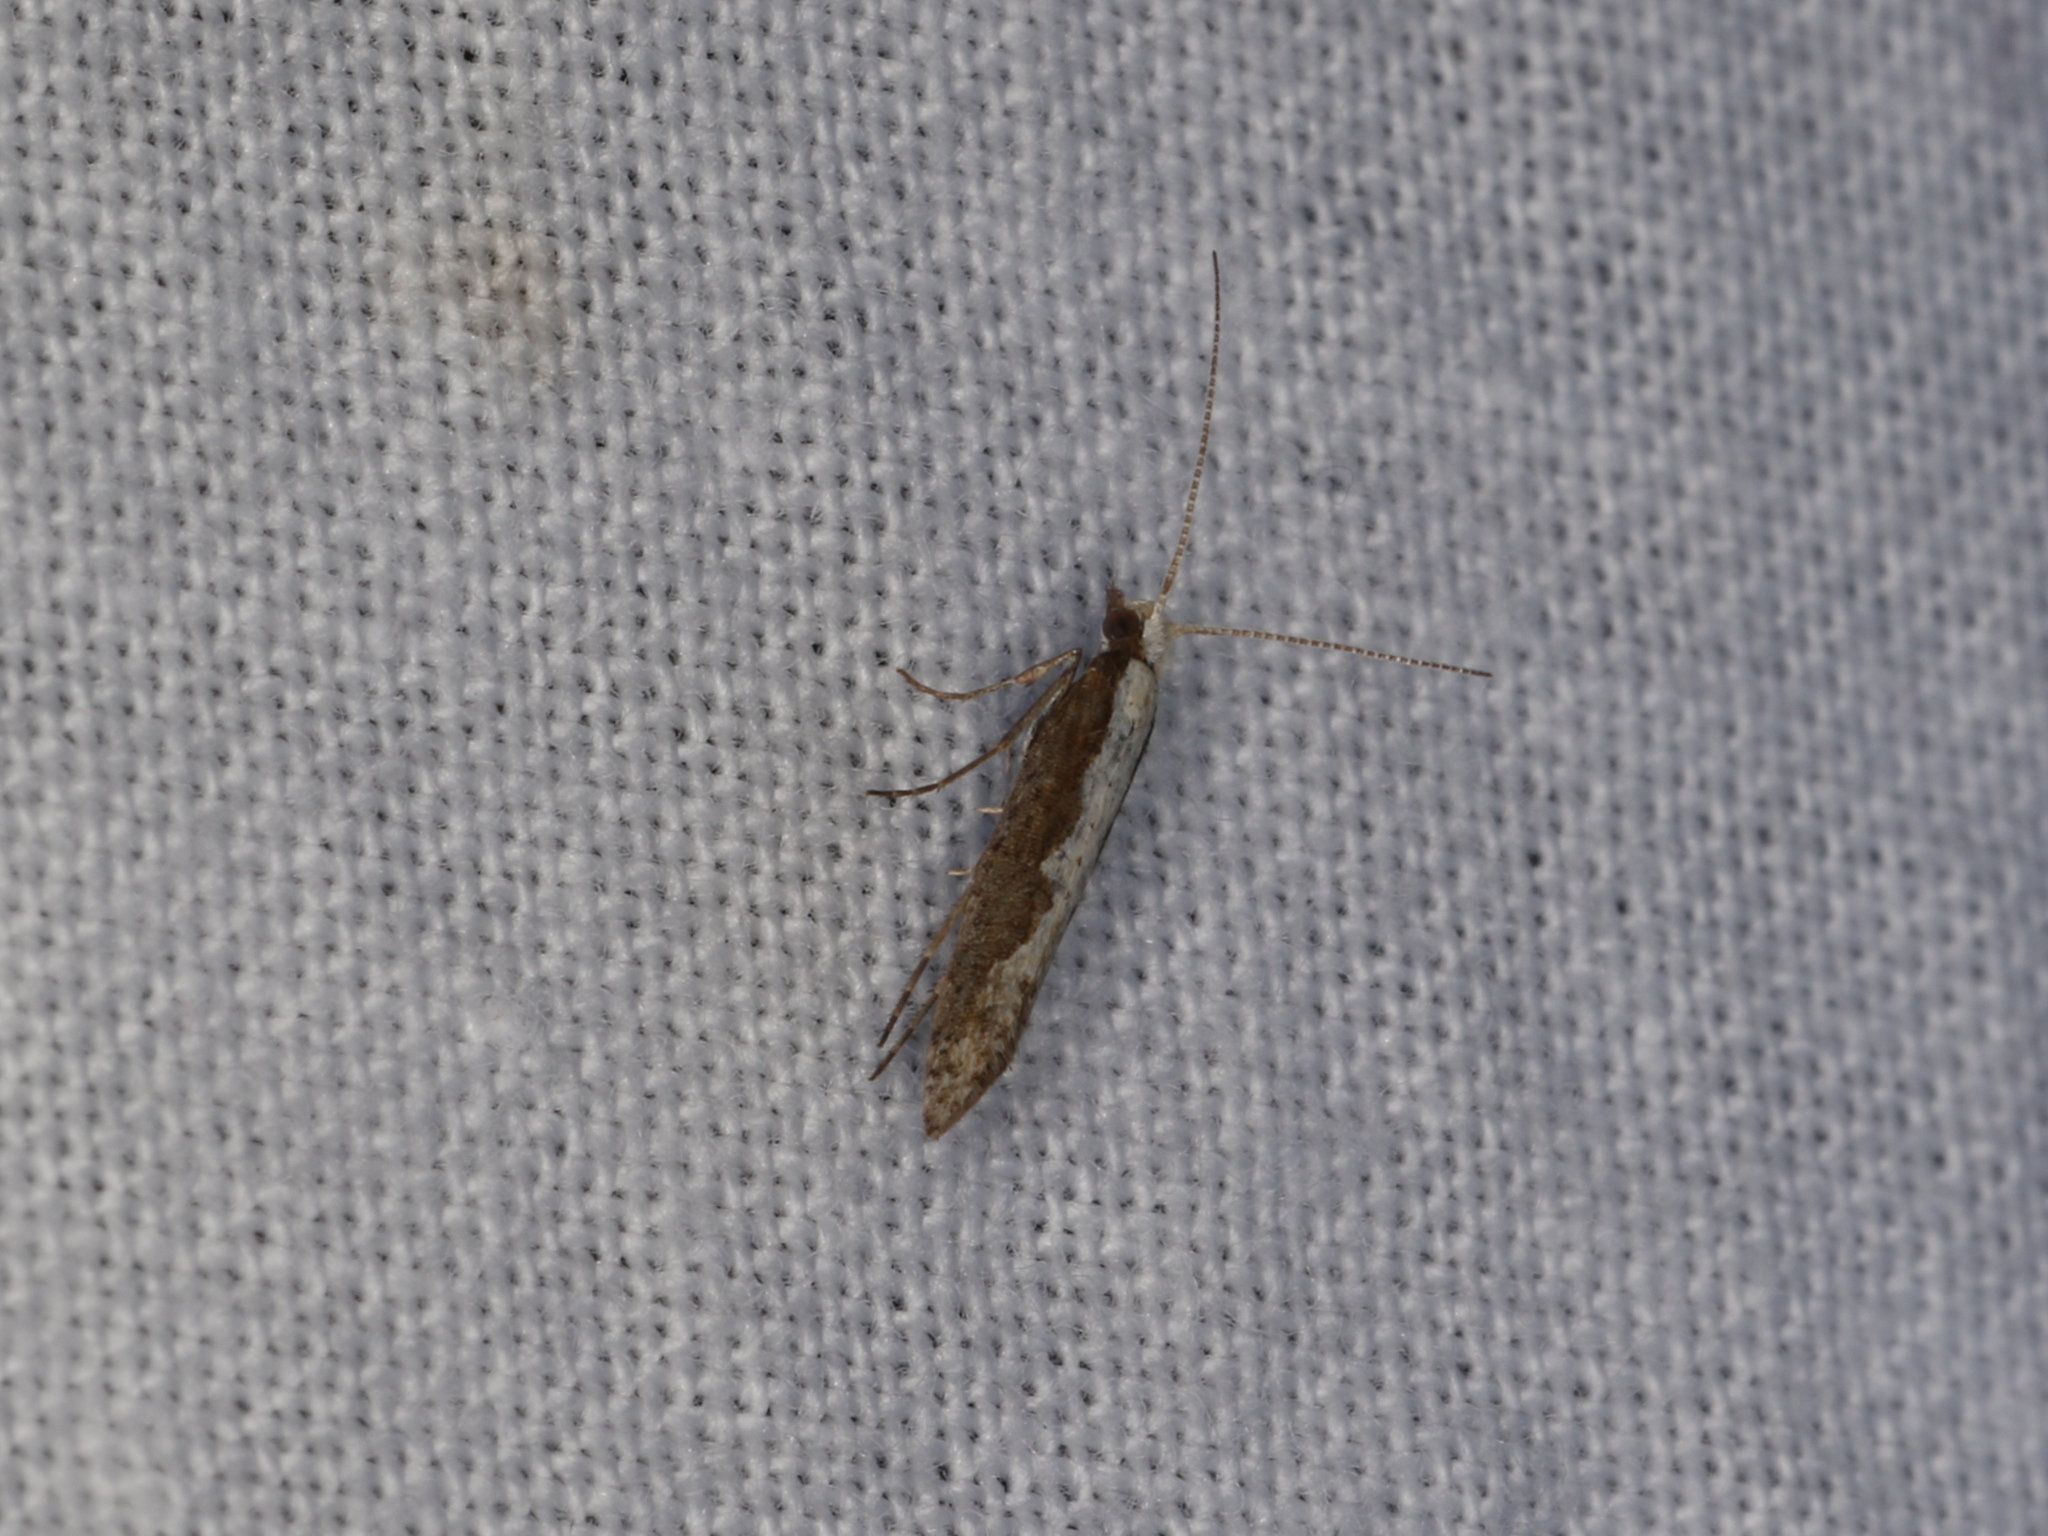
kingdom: Animalia
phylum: Arthropoda
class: Insecta
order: Lepidoptera
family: Plutellidae
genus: Plutella
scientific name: Plutella xylostella
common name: Diamond-back moth
